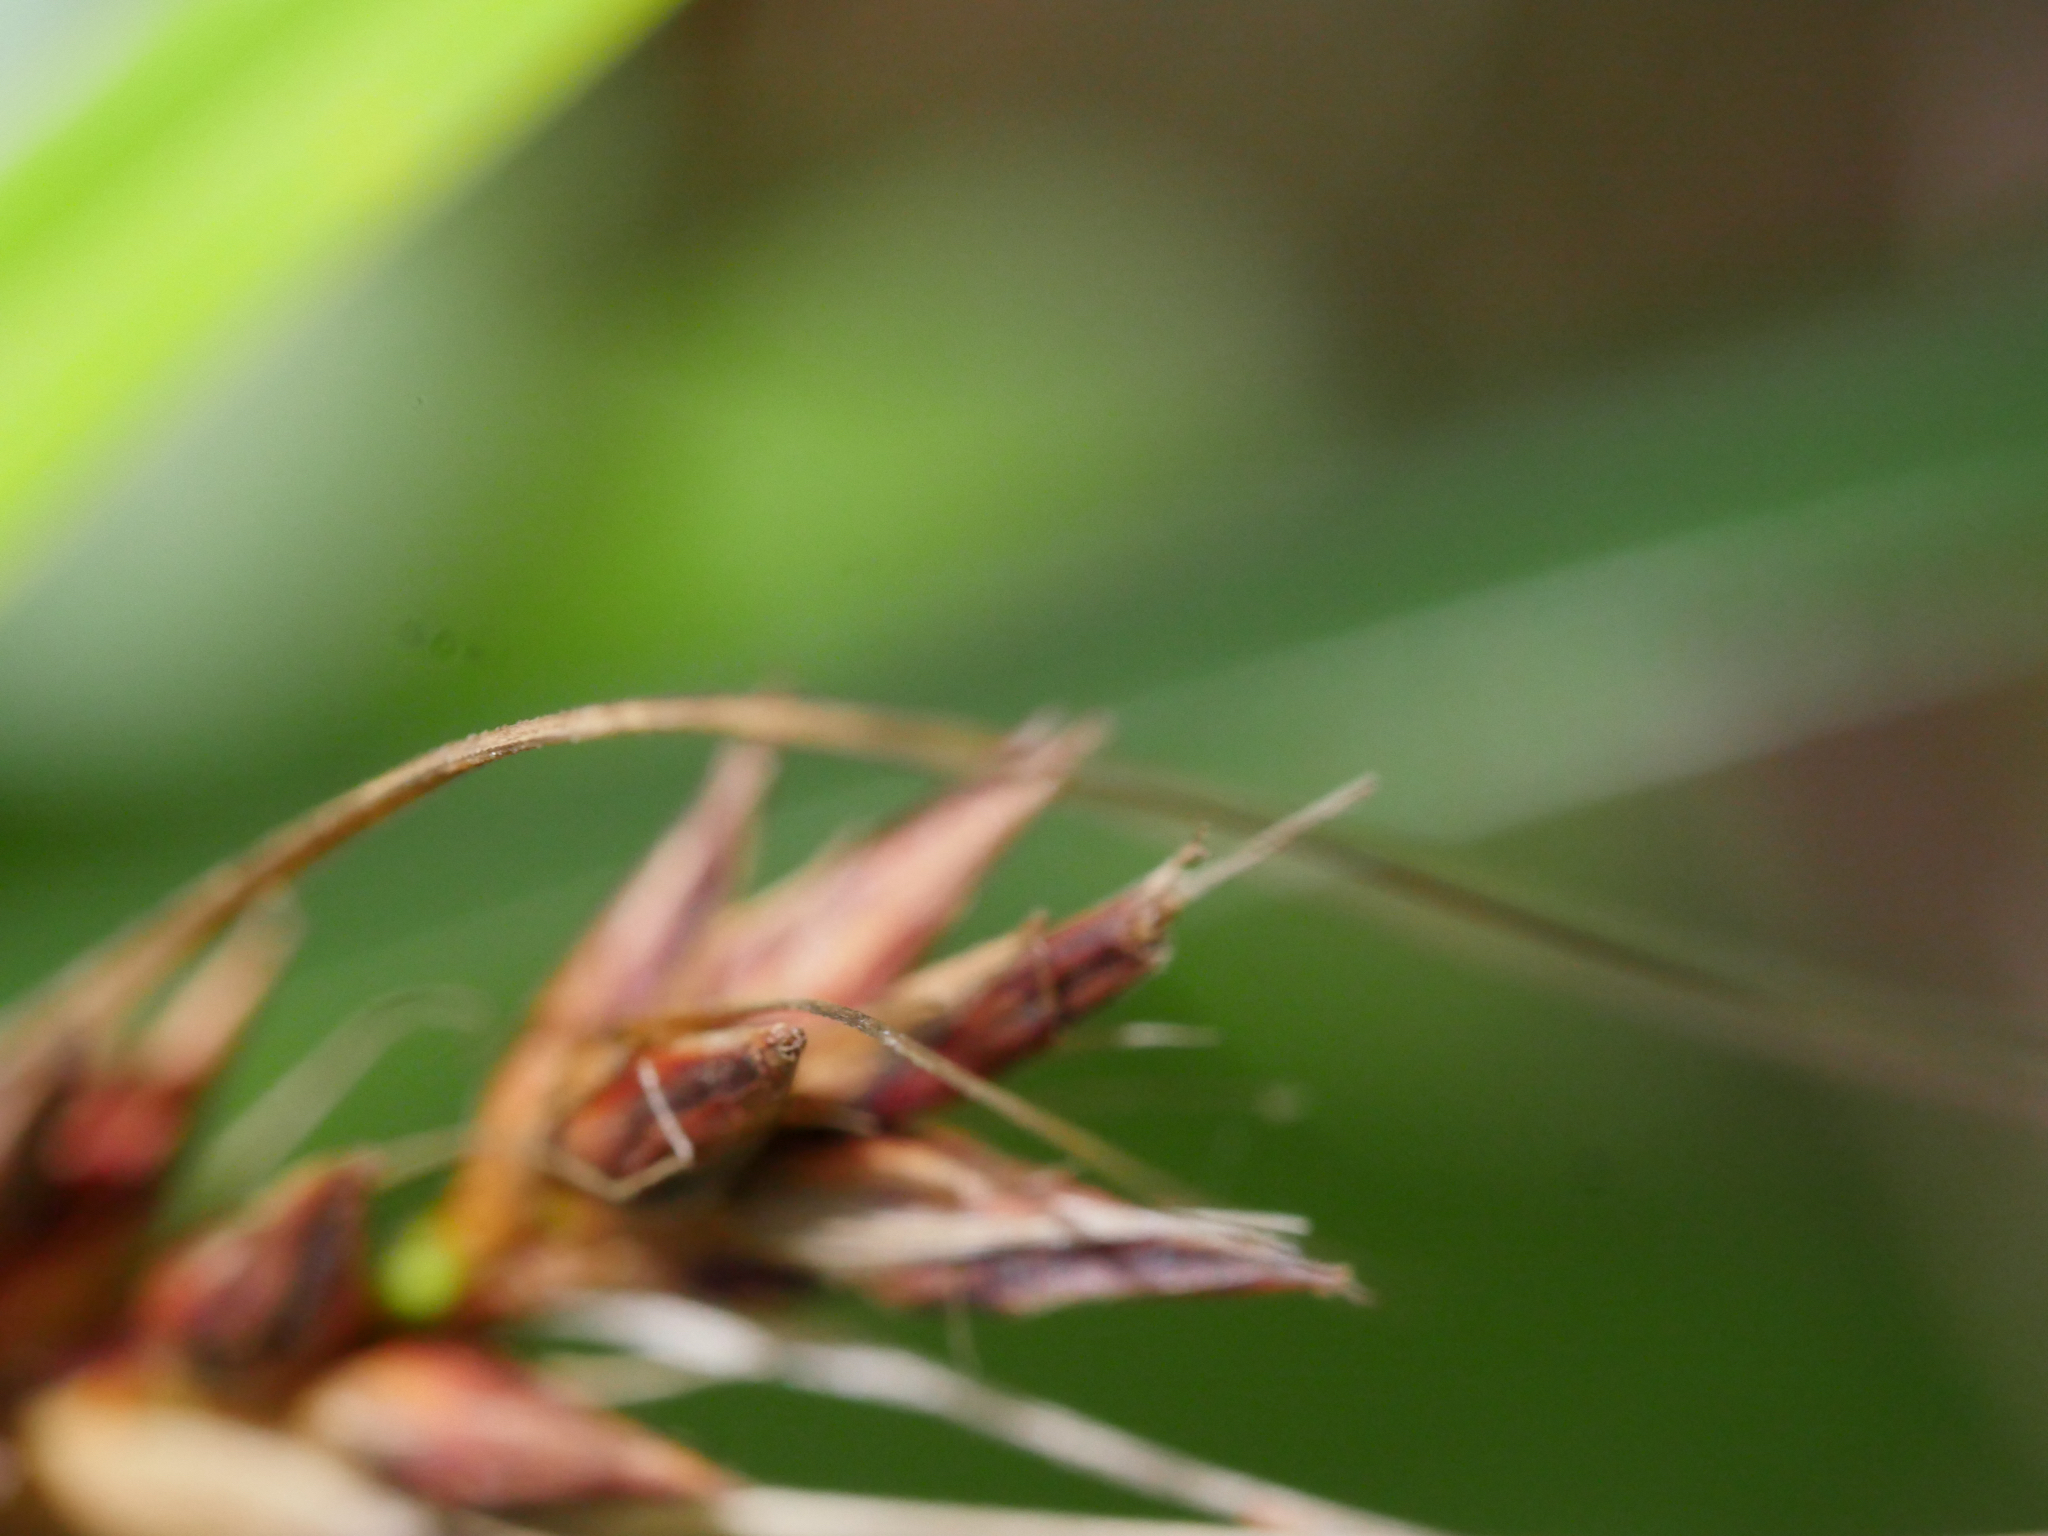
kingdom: Plantae
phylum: Tracheophyta
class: Liliopsida
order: Poales
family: Cyperaceae
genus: Morelotia
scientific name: Morelotia affinis
